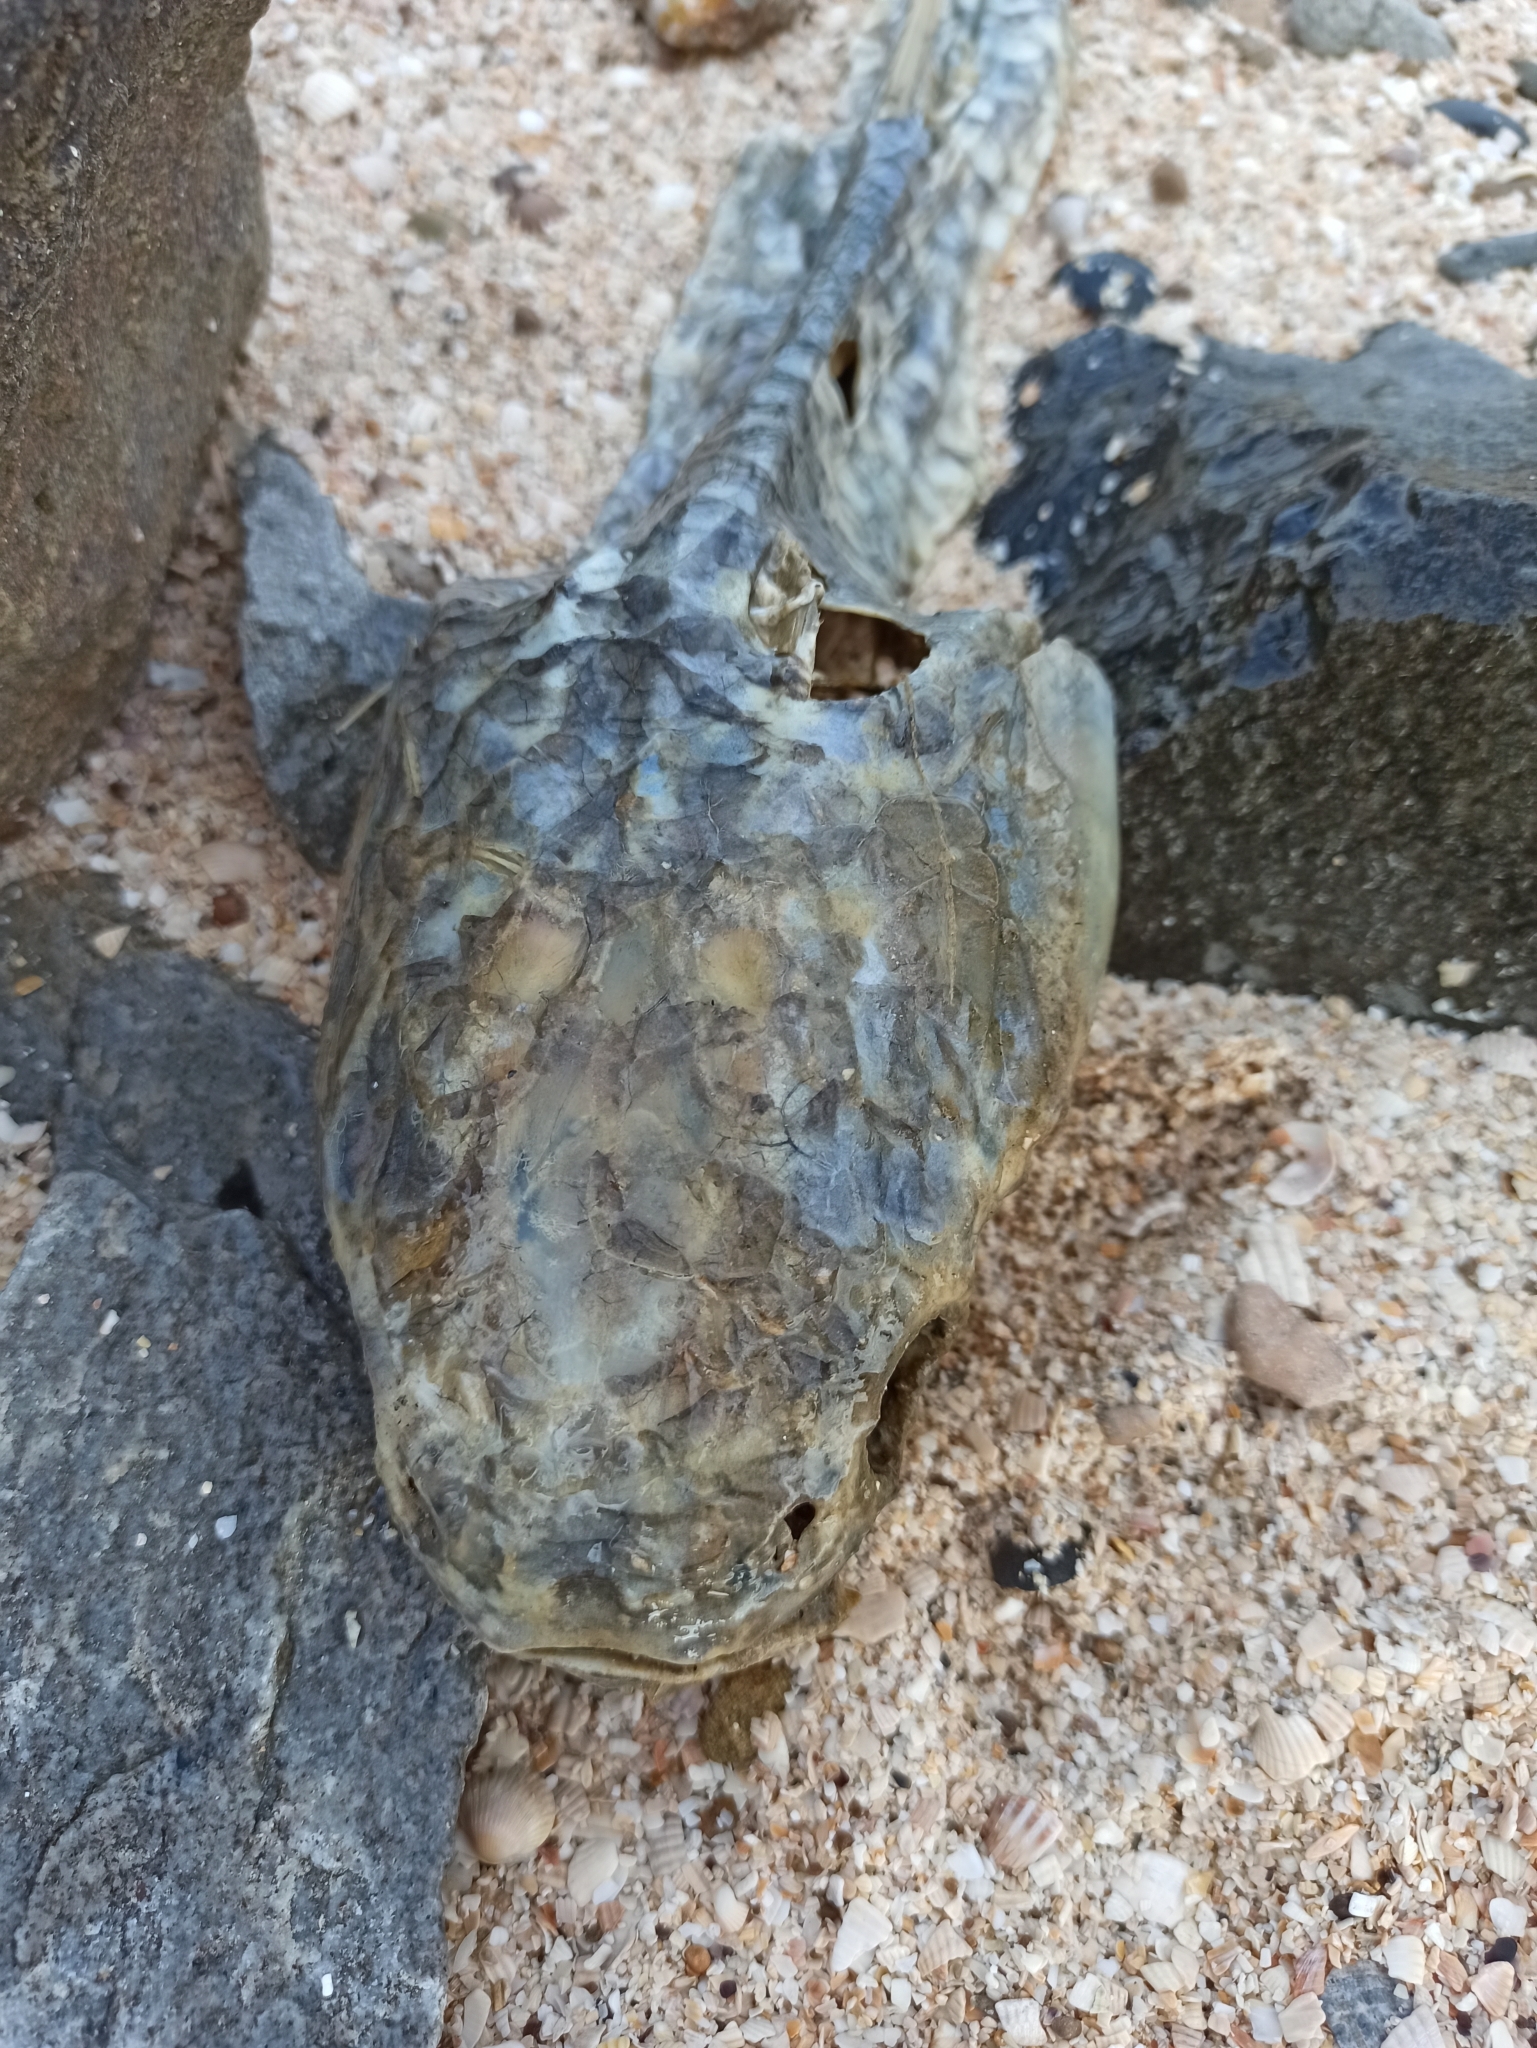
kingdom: Animalia
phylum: Chordata
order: Mugiliformes
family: Mugilidae
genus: Planiliza
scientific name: Planiliza haematocheila
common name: So-iuy mullet
